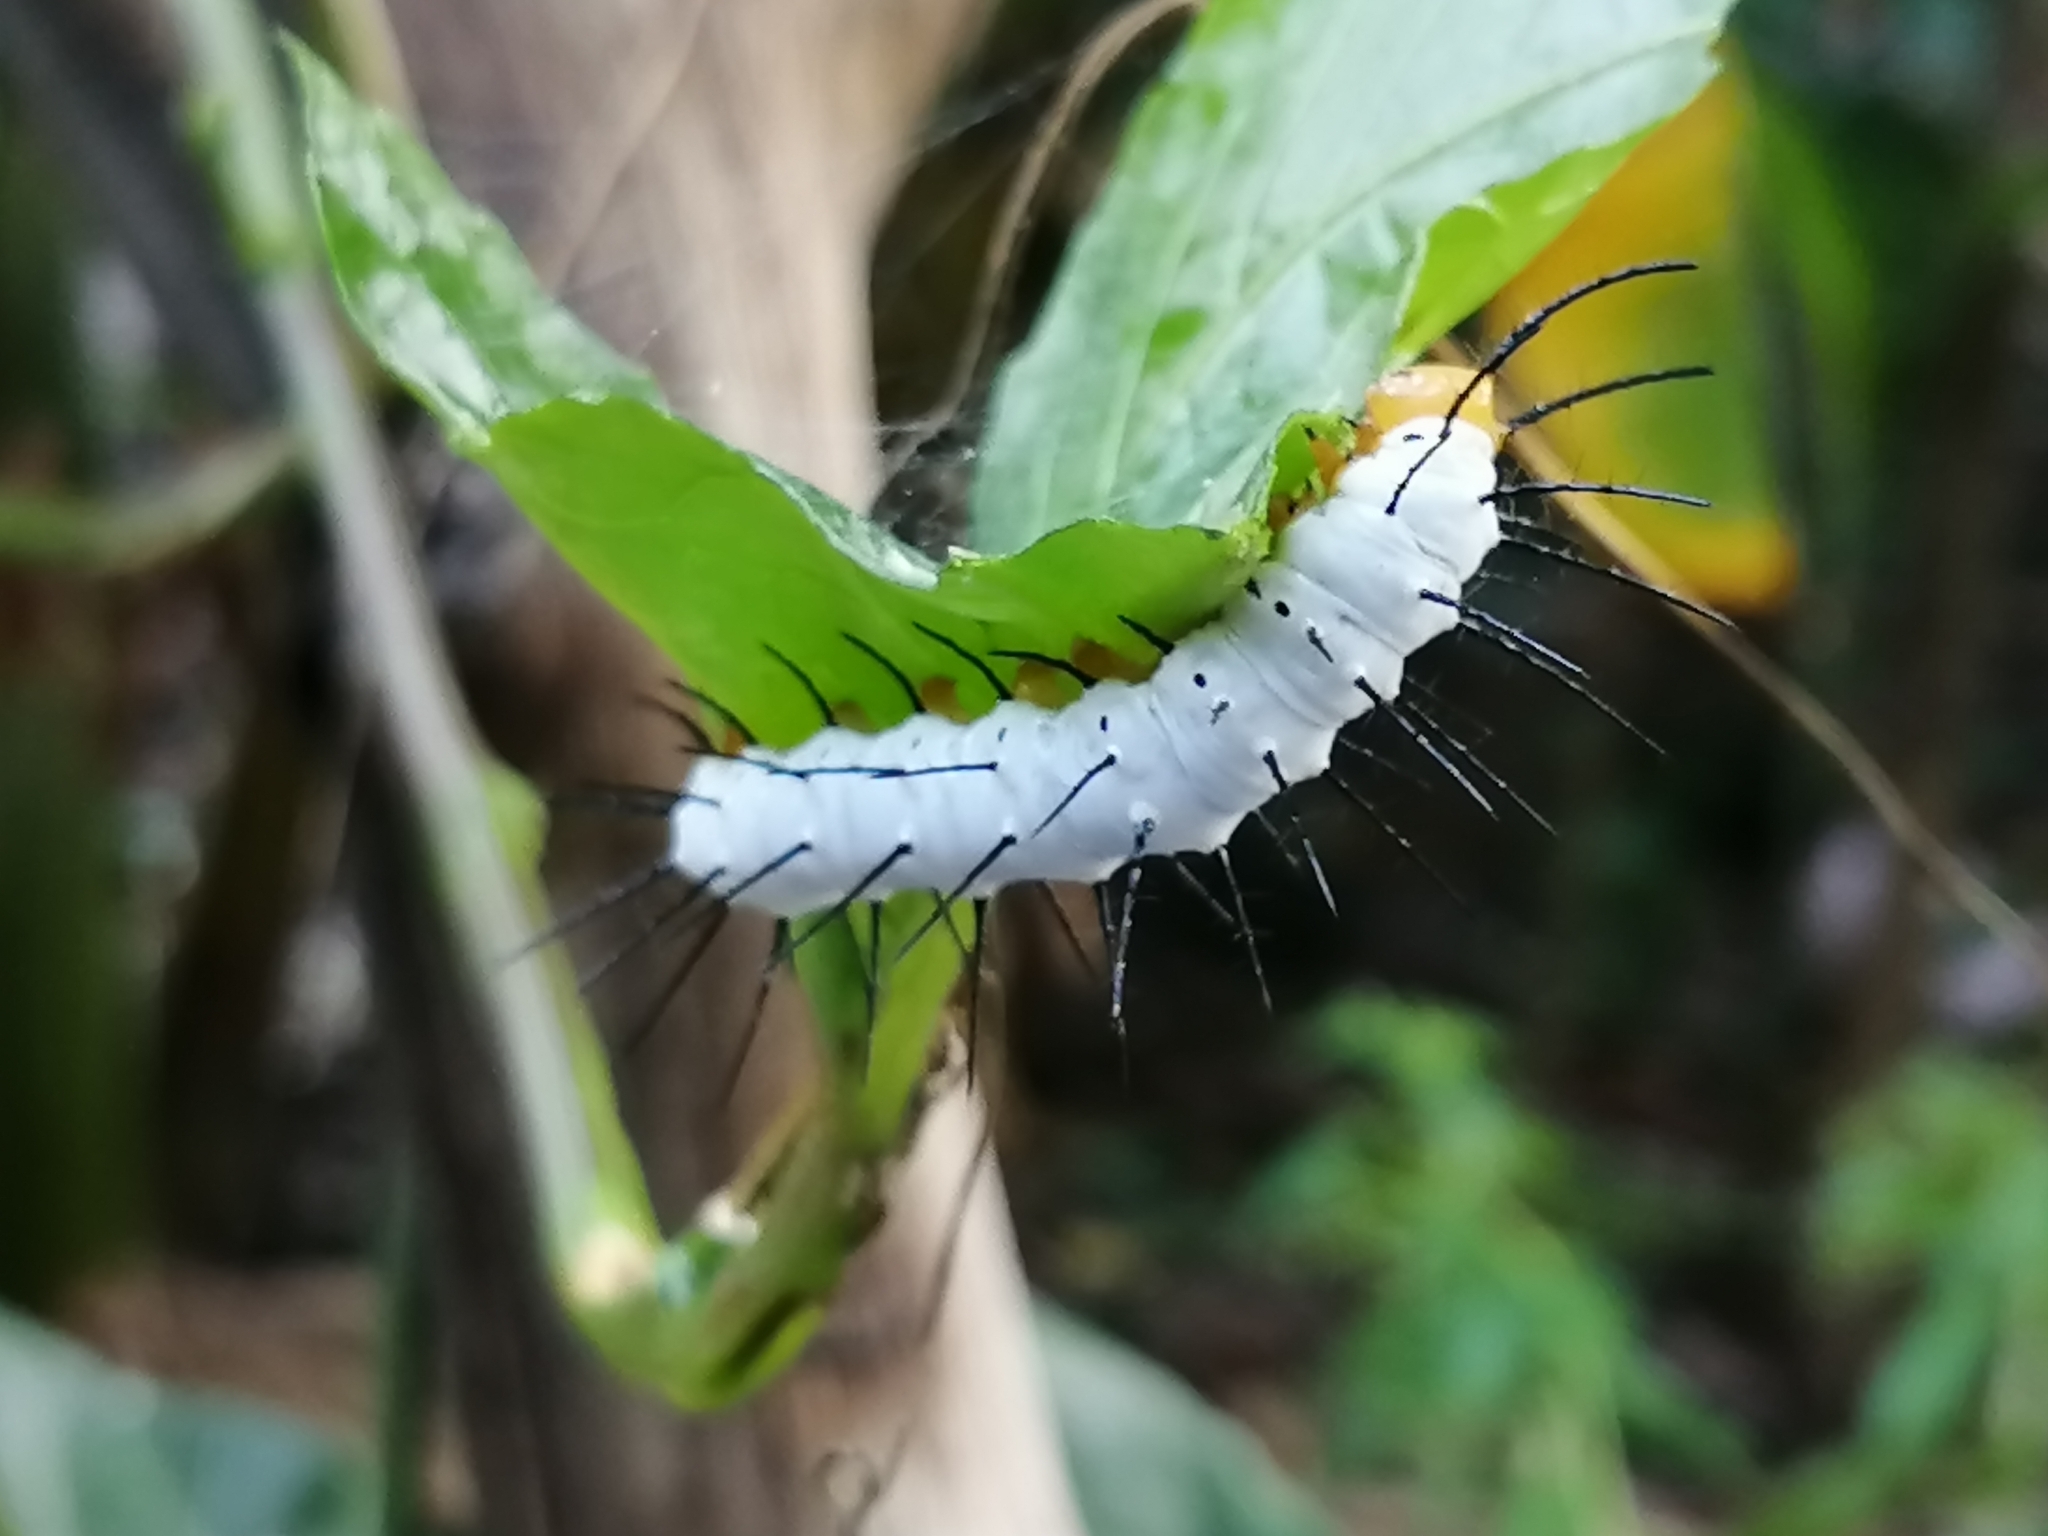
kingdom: Animalia
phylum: Arthropoda
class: Insecta
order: Lepidoptera
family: Nymphalidae
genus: Heliconius
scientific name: Heliconius charithonia
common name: Zebra long wing
